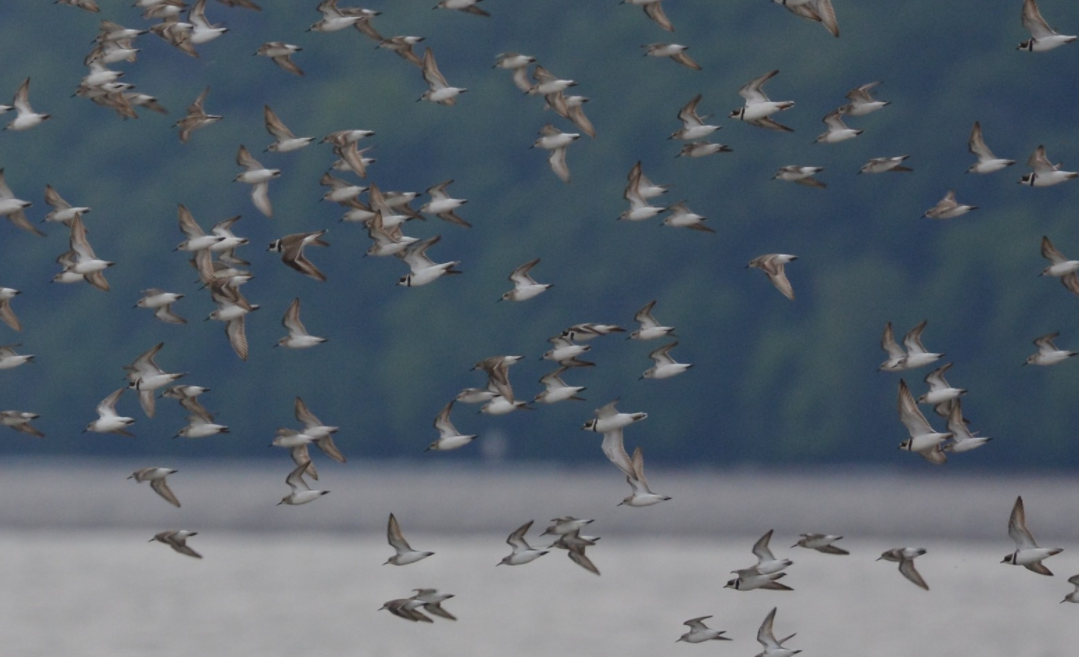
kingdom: Animalia
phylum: Chordata
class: Aves
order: Charadriiformes
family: Scolopacidae
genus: Calidris
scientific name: Calidris pusilla
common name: Semipalmated sandpiper
